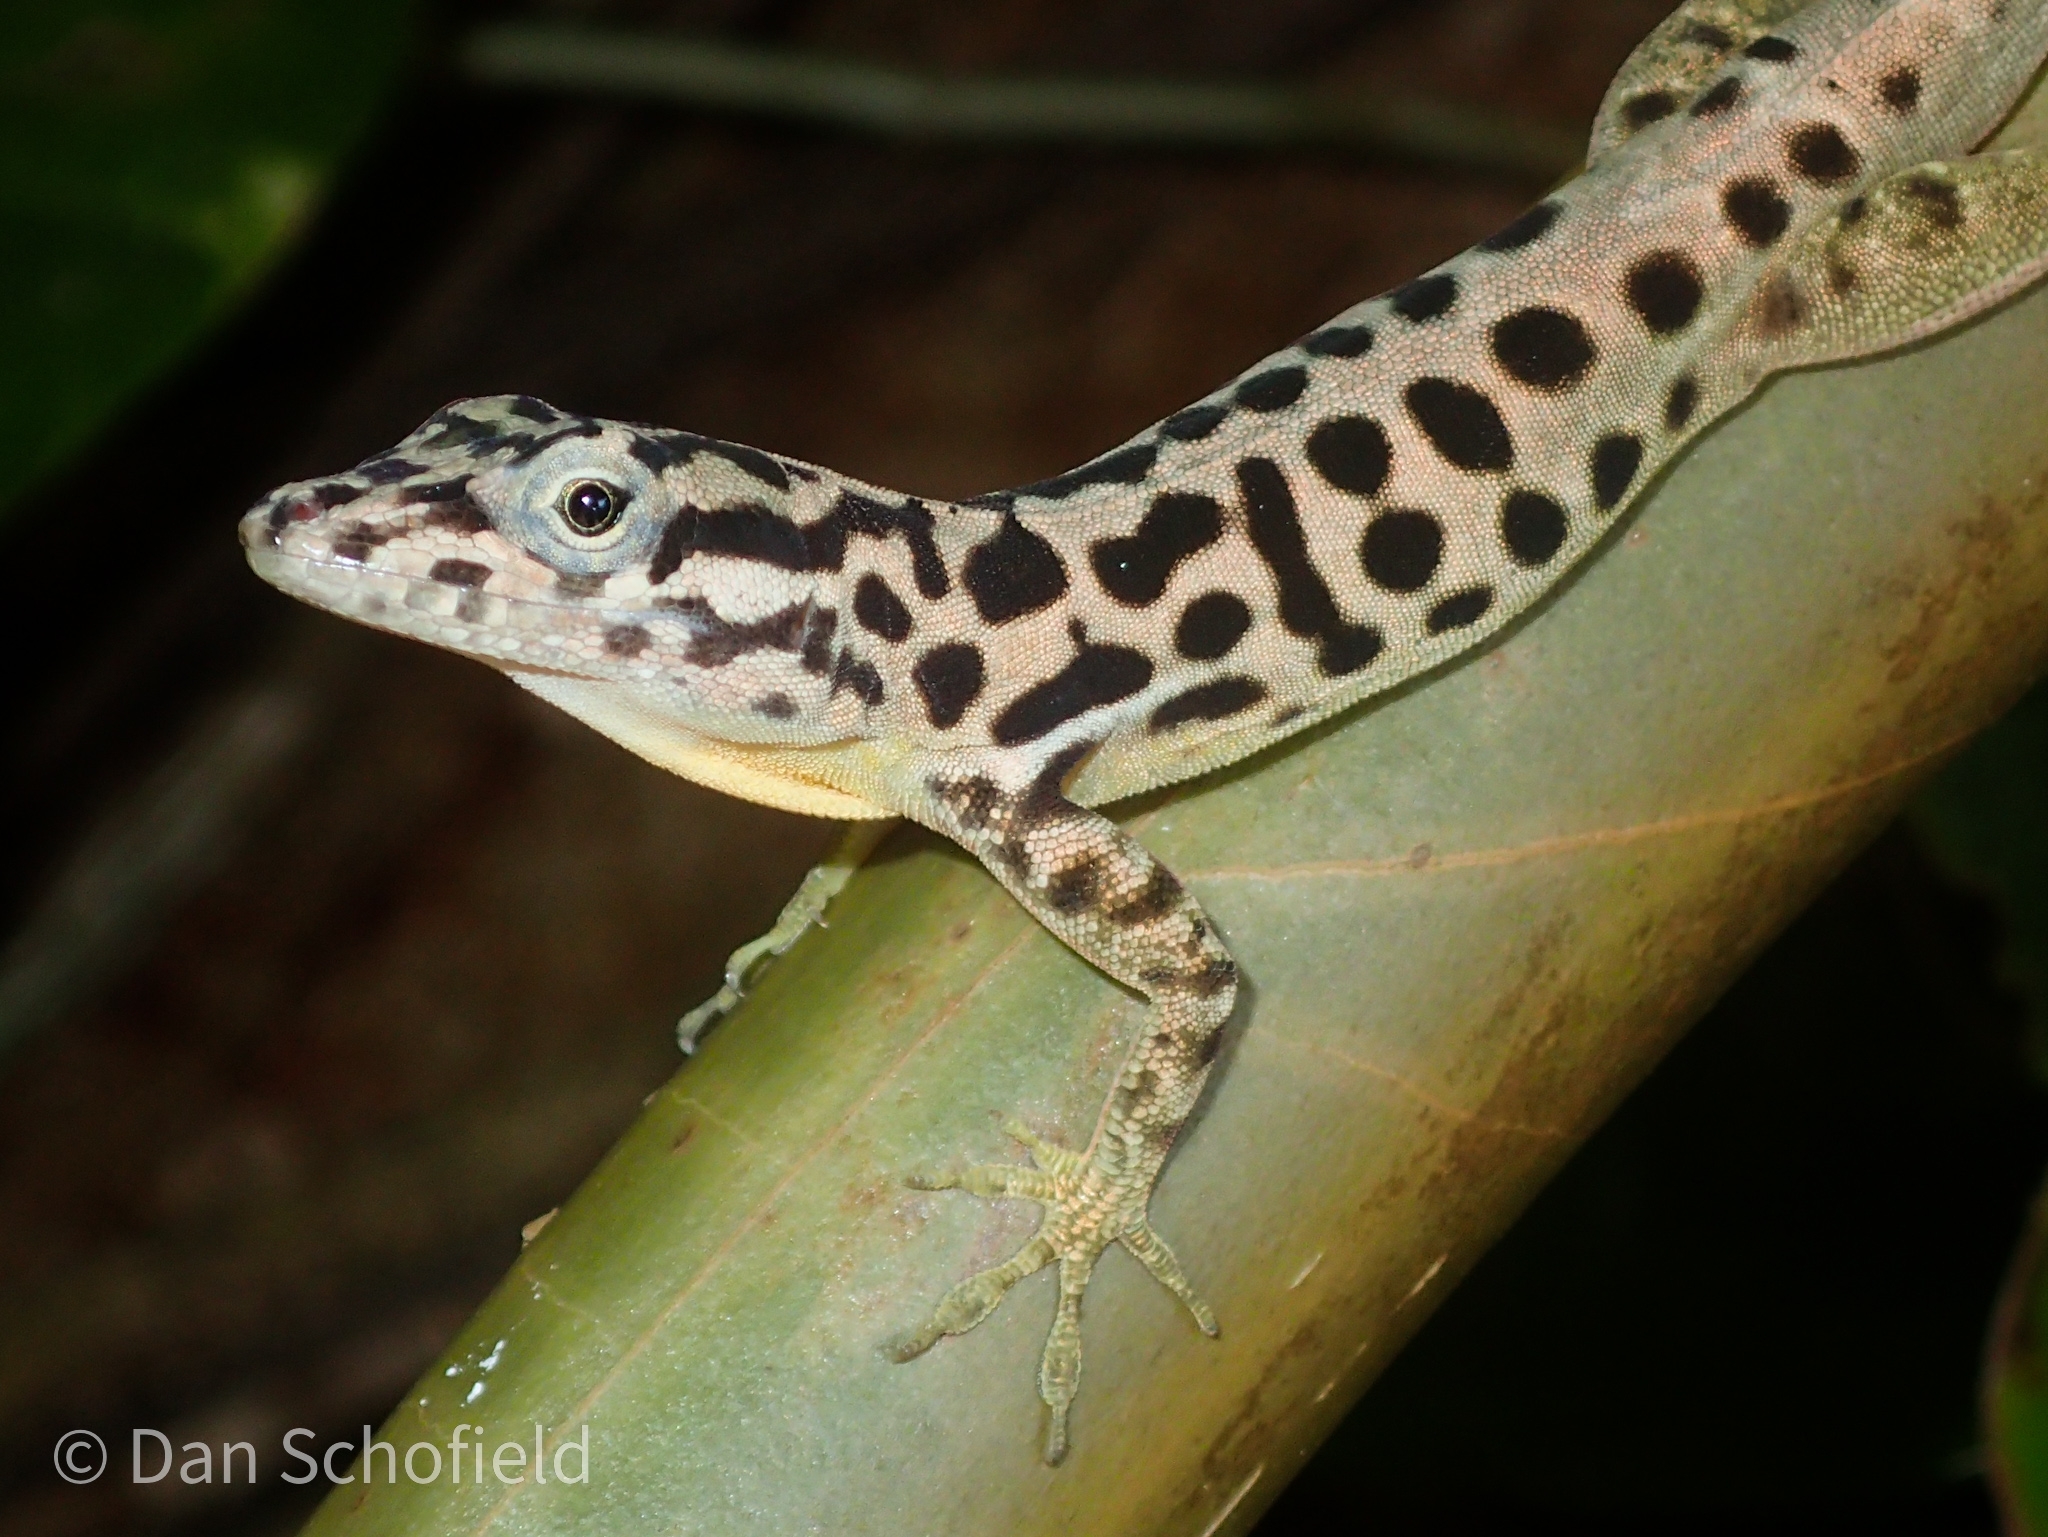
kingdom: Animalia
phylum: Chordata
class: Squamata
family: Dactyloidae
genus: Anolis
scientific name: Anolis sabanus
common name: Saba anole
